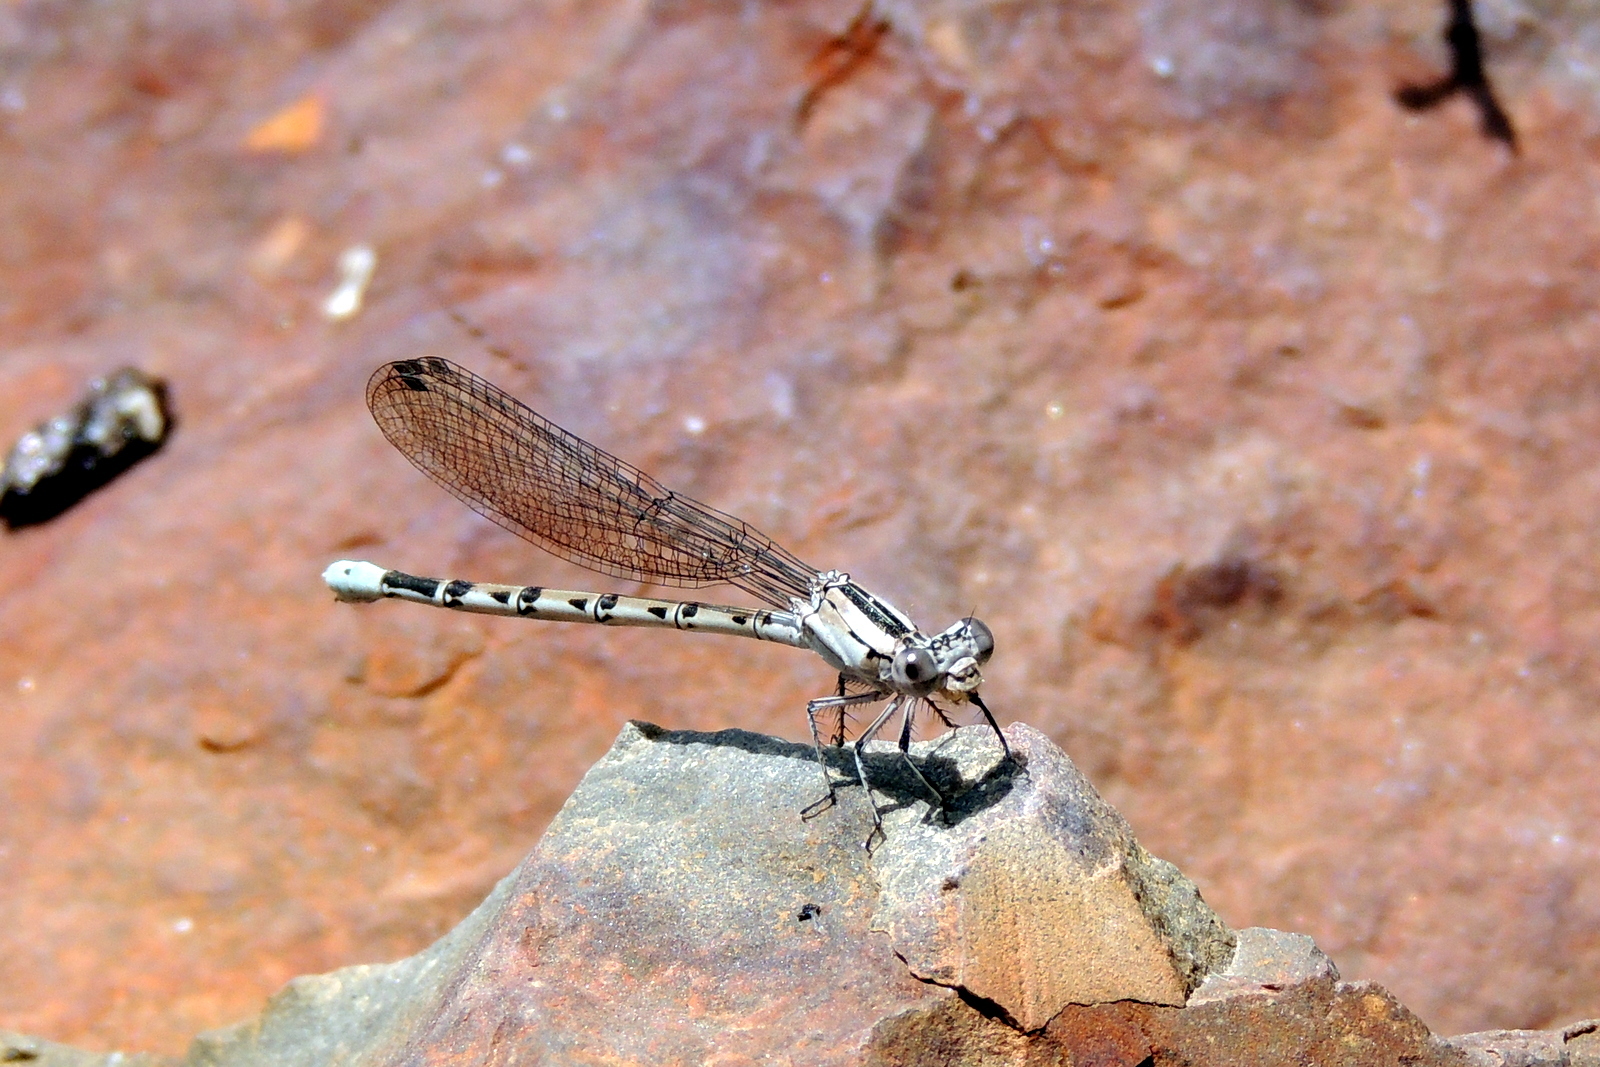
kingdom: Animalia
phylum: Arthropoda
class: Insecta
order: Odonata
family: Coenagrionidae
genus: Argia
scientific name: Argia vivida
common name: Vivid dancer
